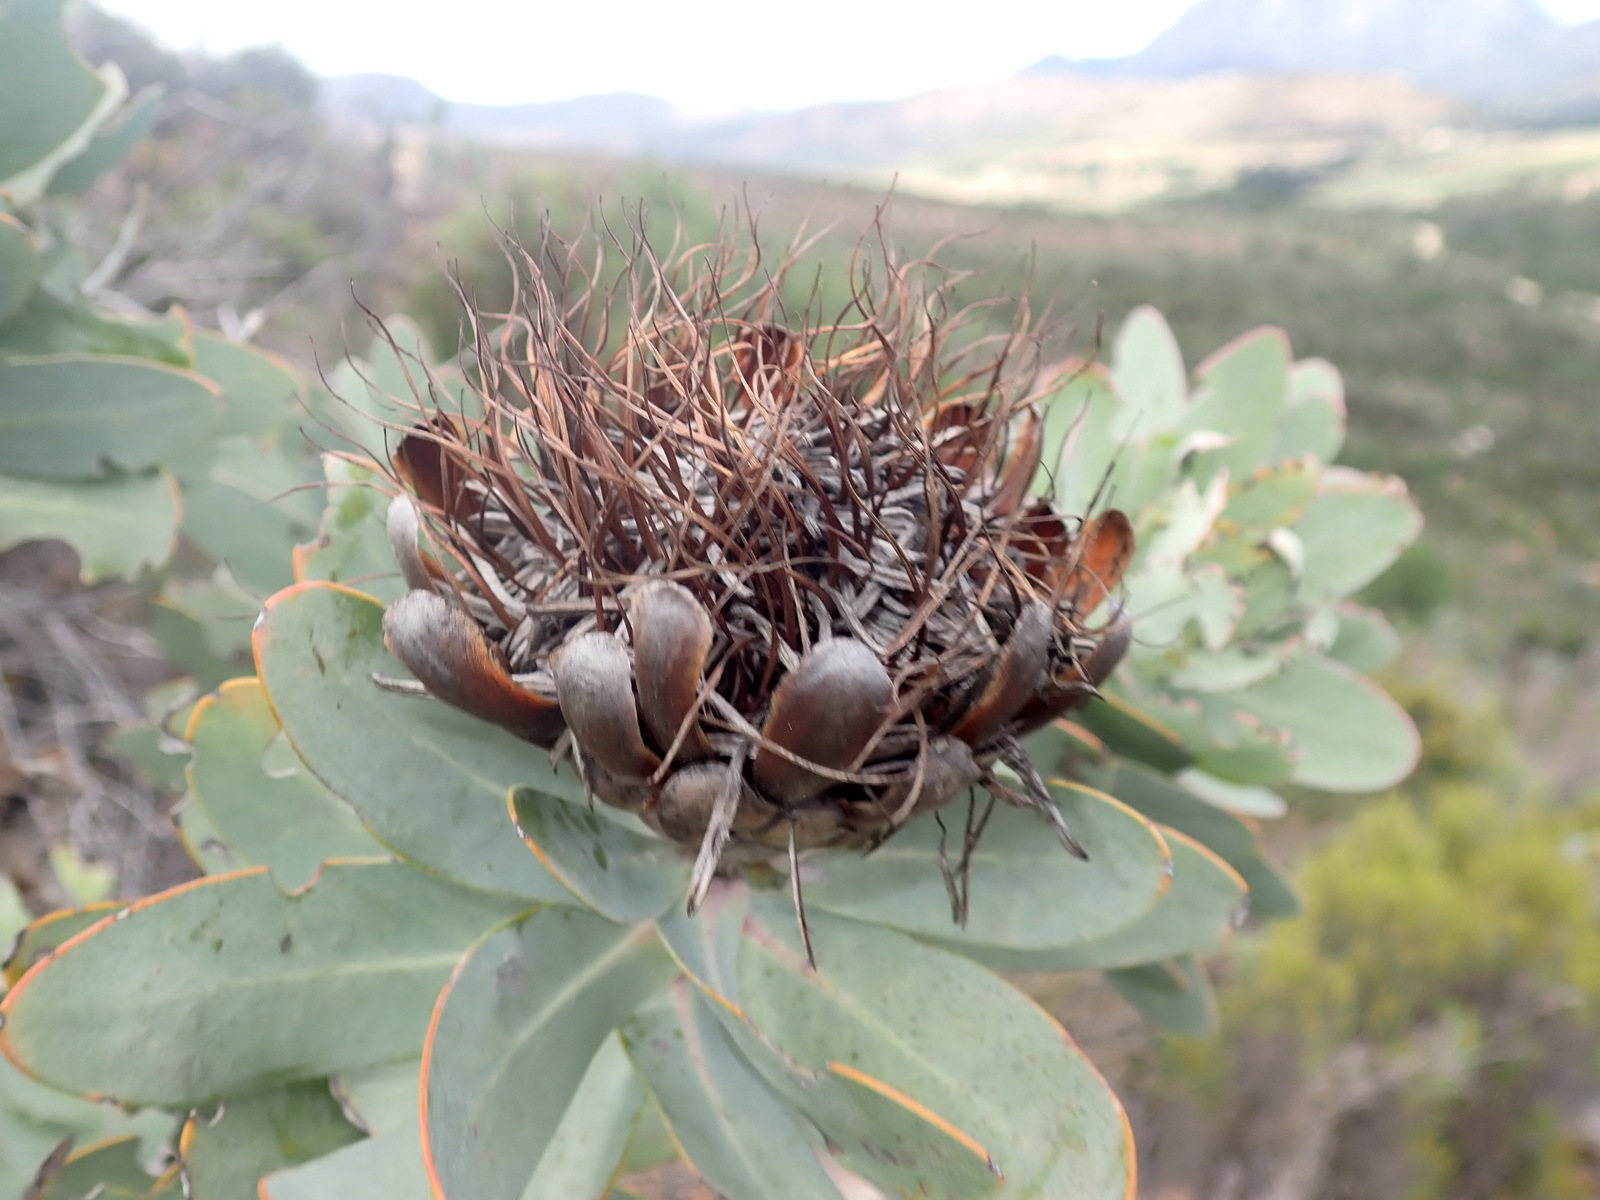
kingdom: Plantae
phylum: Tracheophyta
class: Magnoliopsida
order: Proteales
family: Proteaceae
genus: Protea
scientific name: Protea nitida
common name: Tree protea
